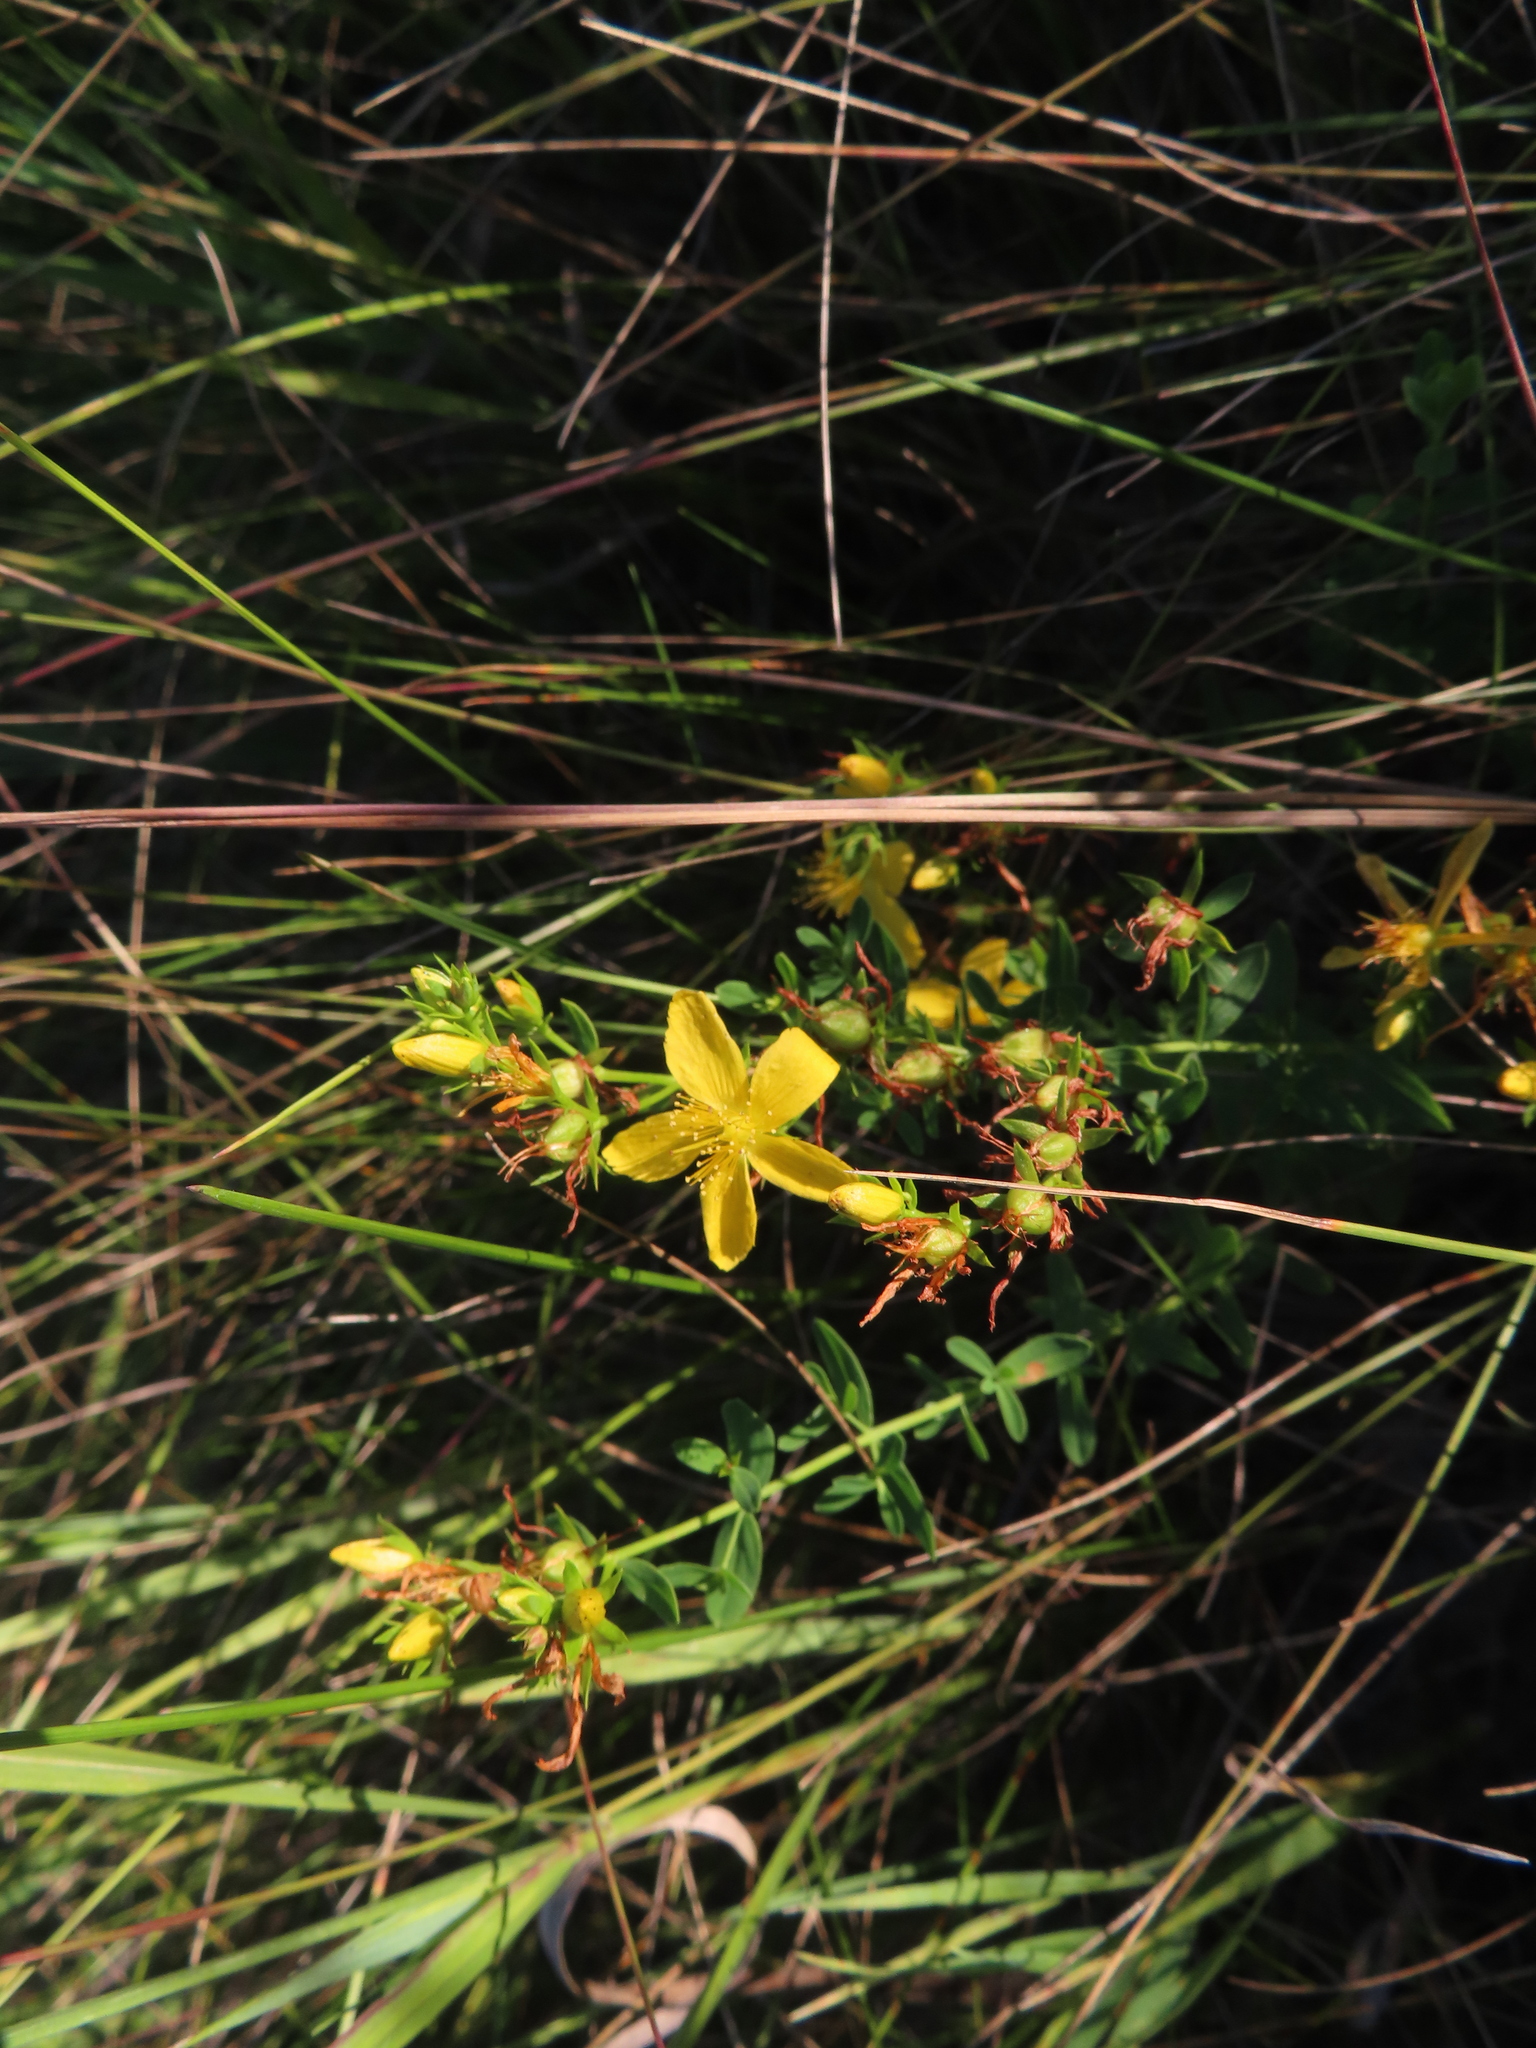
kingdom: Plantae
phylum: Tracheophyta
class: Magnoliopsida
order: Malpighiales
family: Hypericaceae
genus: Hypericum
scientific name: Hypericum perforatum
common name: Common st. johnswort
